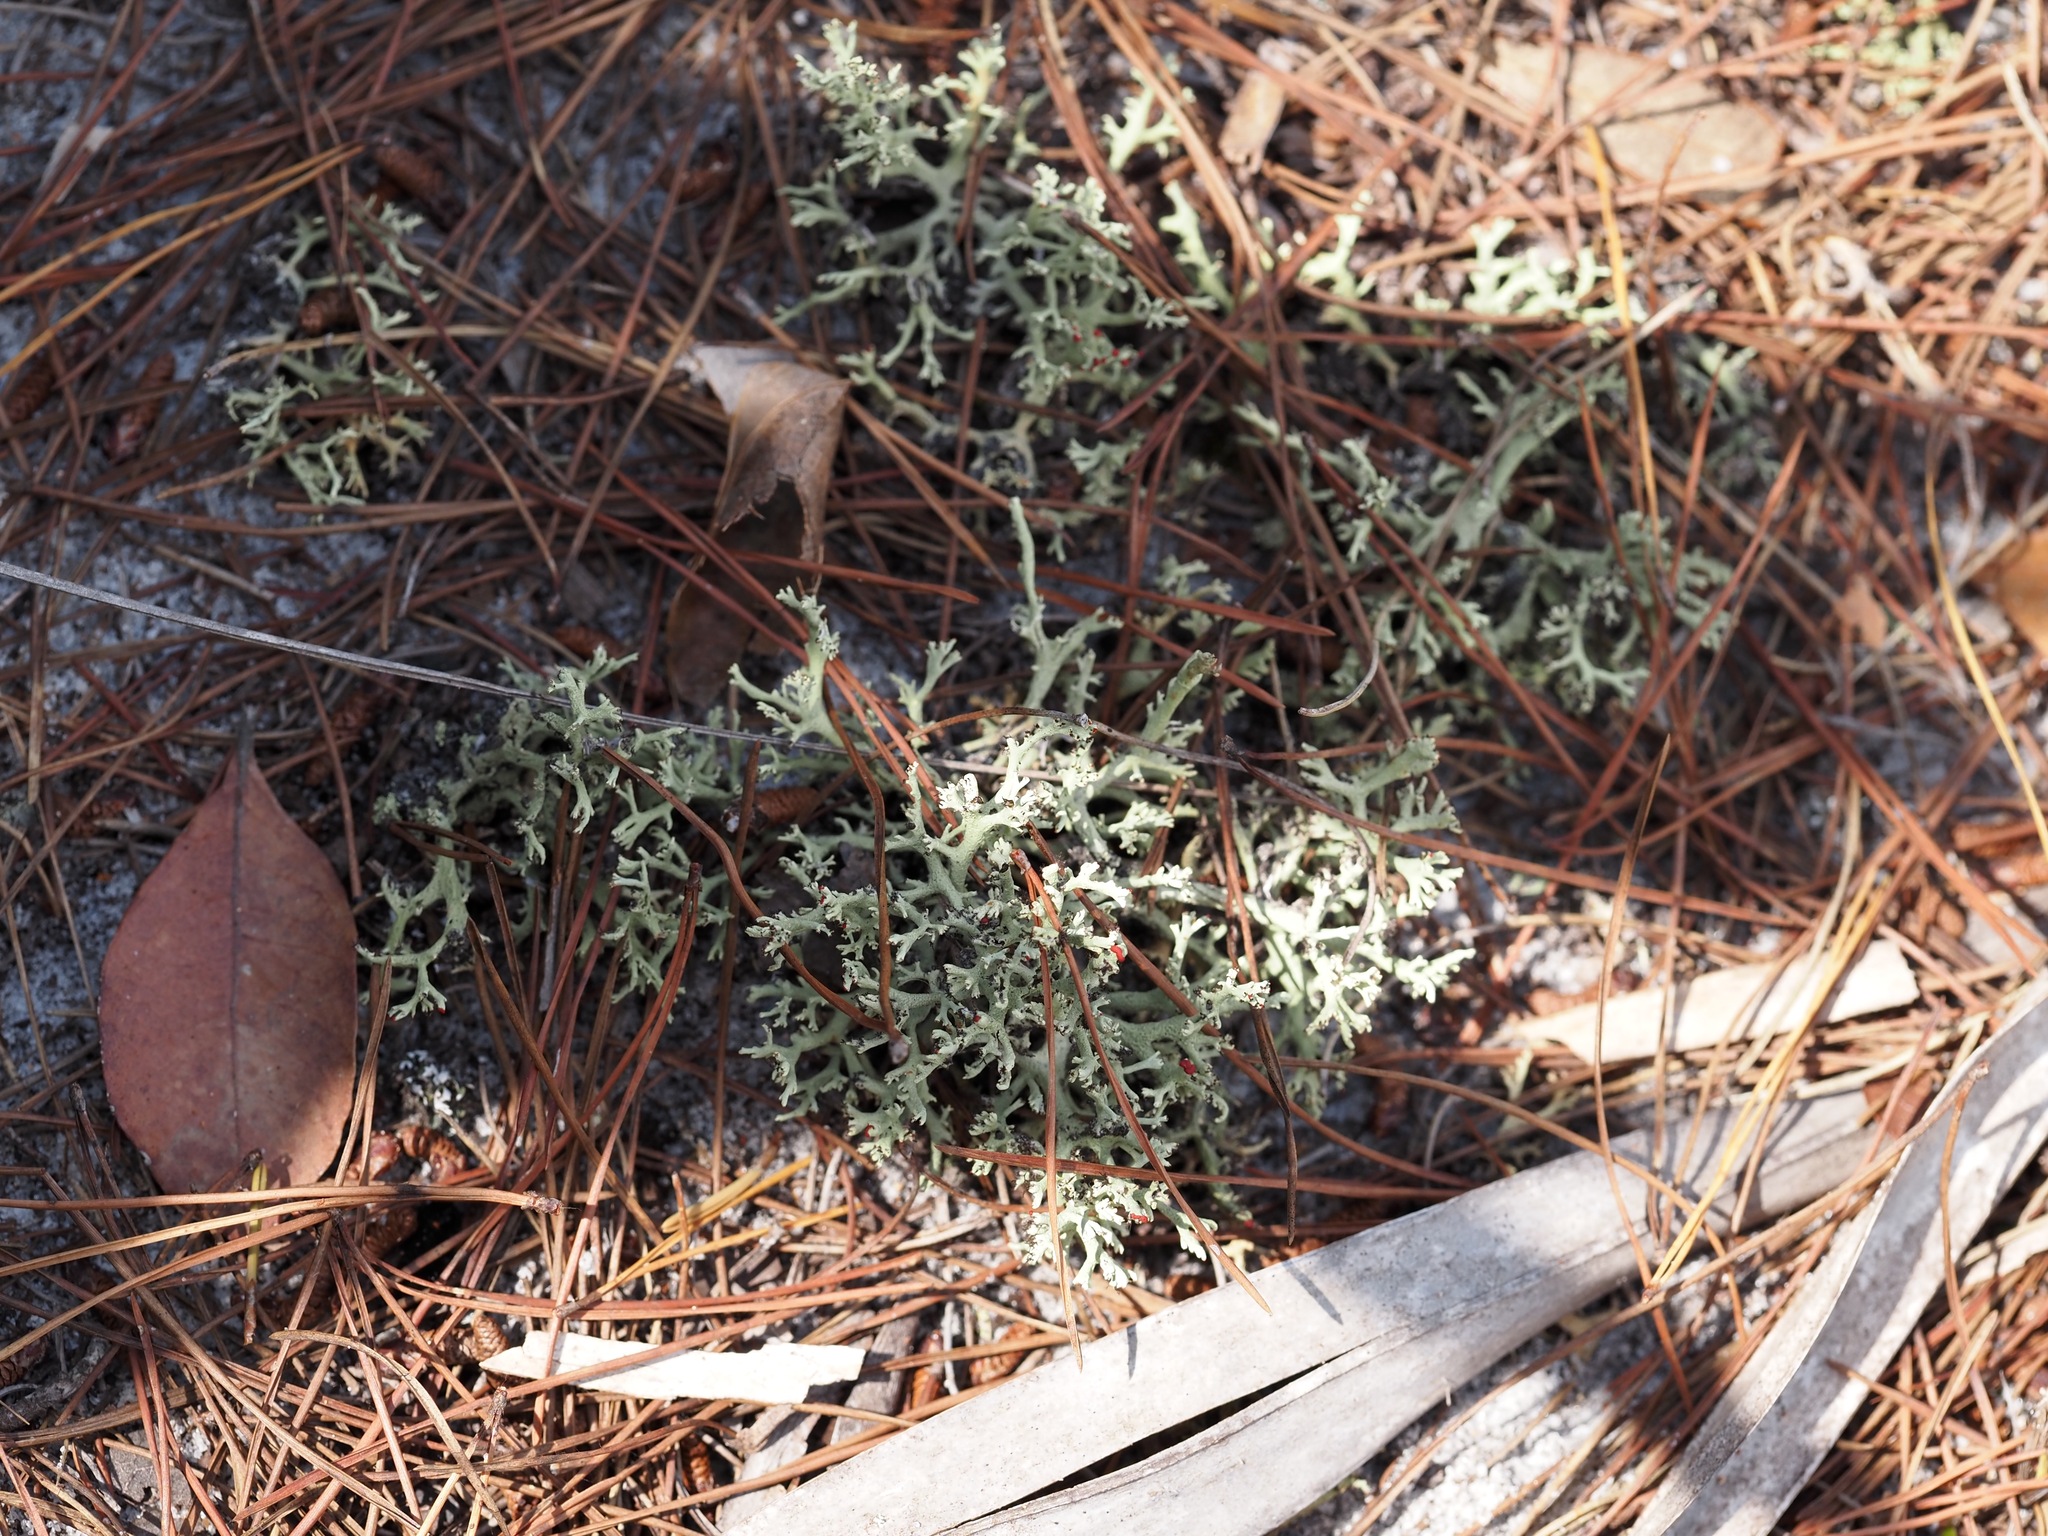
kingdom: Fungi
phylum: Ascomycota
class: Lecanoromycetes
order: Lecanorales
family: Cladoniaceae
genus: Cladonia
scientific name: Cladonia leporina
